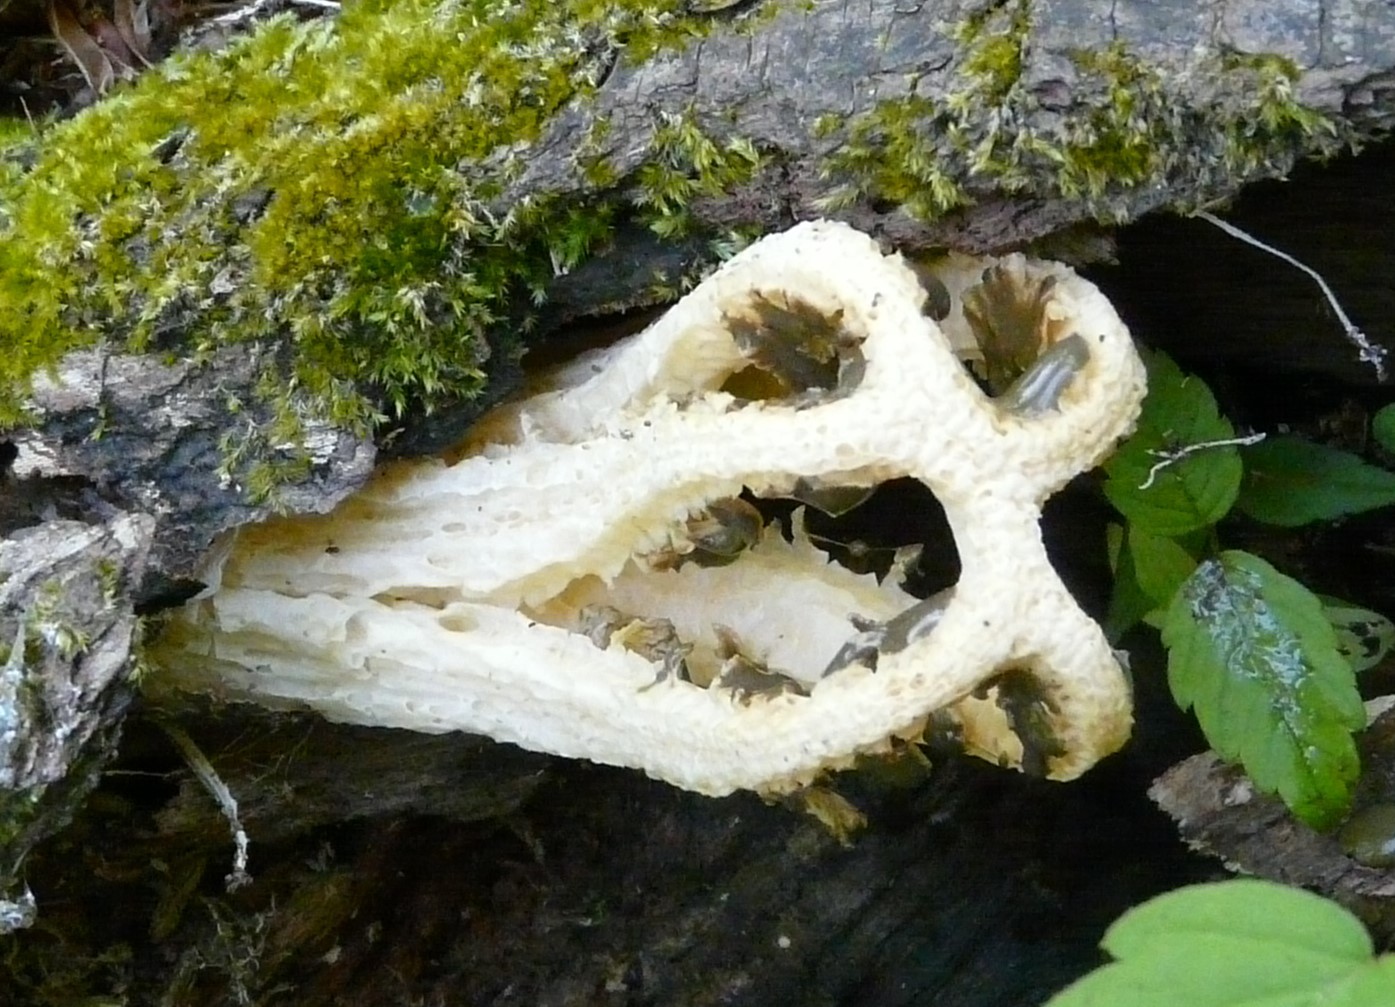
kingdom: Fungi
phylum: Basidiomycota
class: Agaricomycetes
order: Phallales
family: Phallaceae
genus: Blumenavia
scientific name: Blumenavia rhacodes
